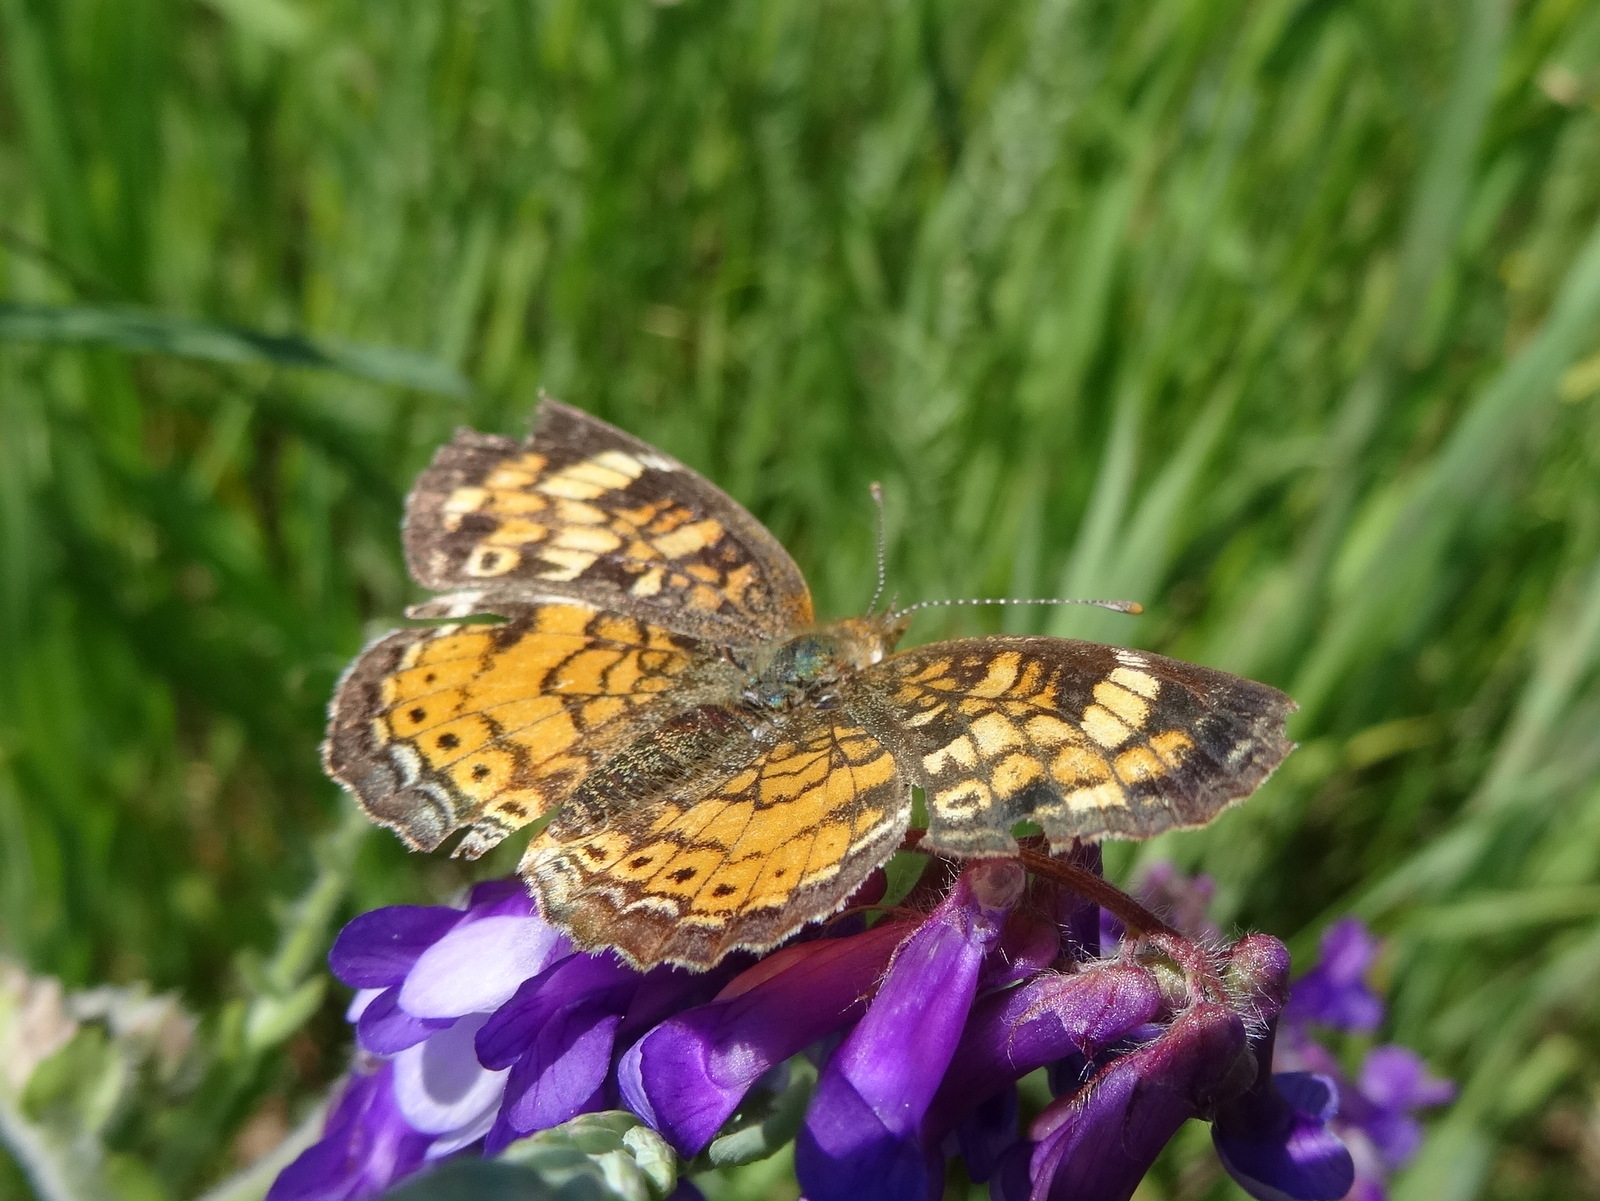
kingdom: Animalia
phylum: Arthropoda
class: Insecta
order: Lepidoptera
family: Nymphalidae
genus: Phyciodes
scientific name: Phyciodes tharos
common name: Pearl crescent
